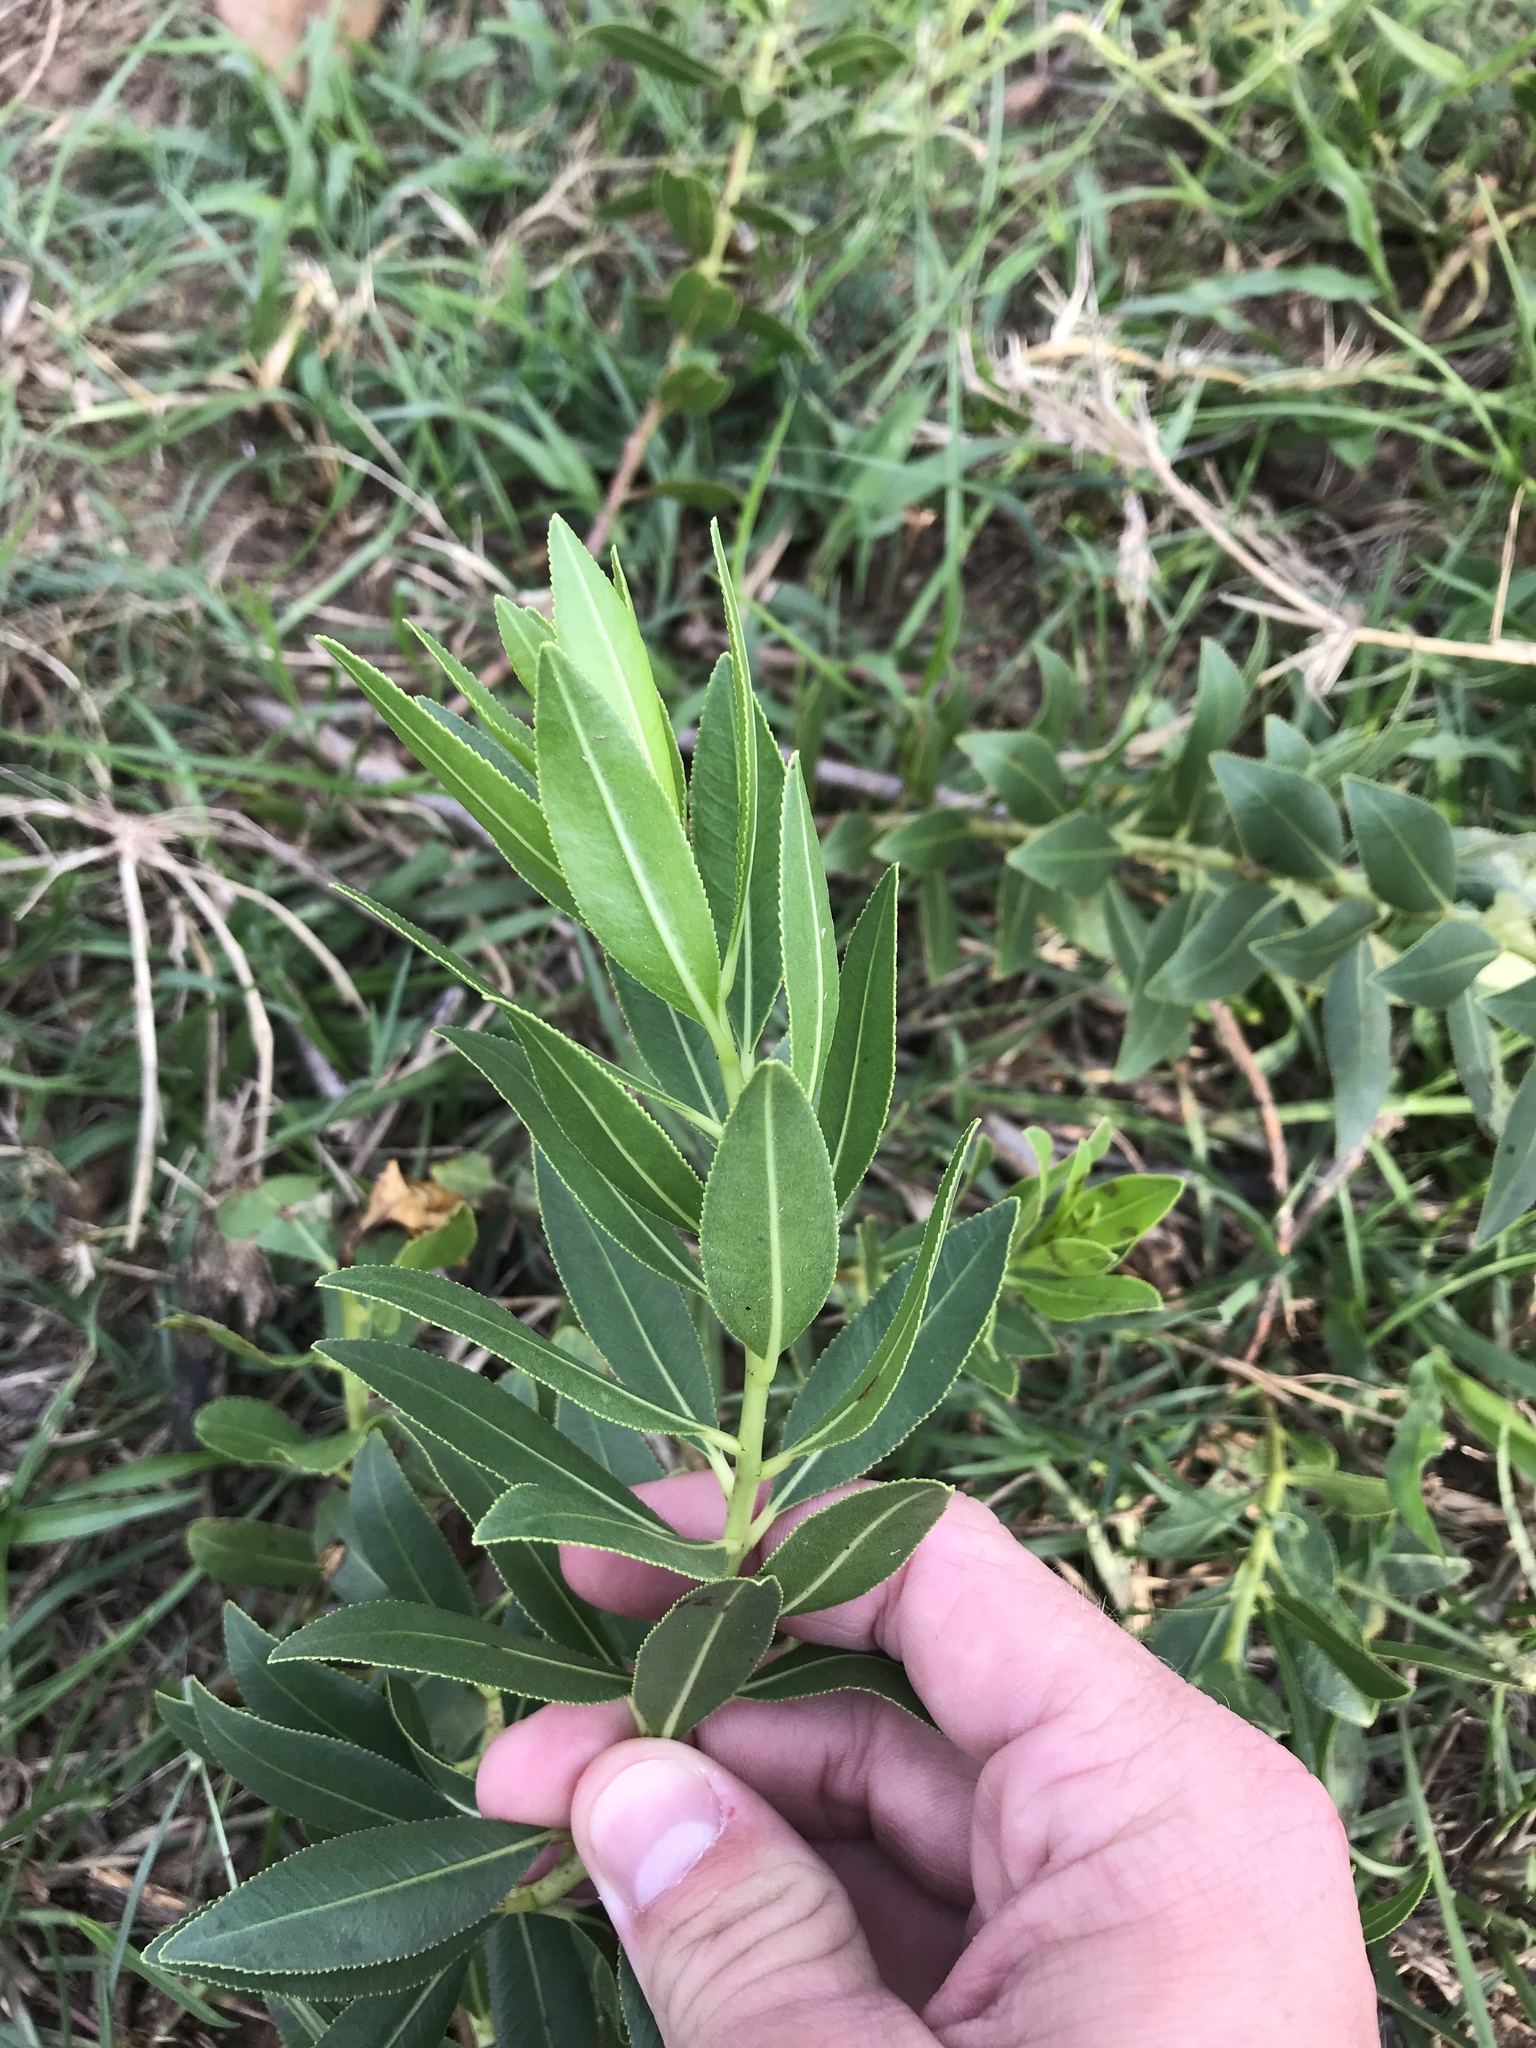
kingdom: Plantae
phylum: Tracheophyta
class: Magnoliopsida
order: Malpighiales
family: Euphorbiaceae
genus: Stillingia
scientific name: Stillingia sylvatica
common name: Queen's-delight
